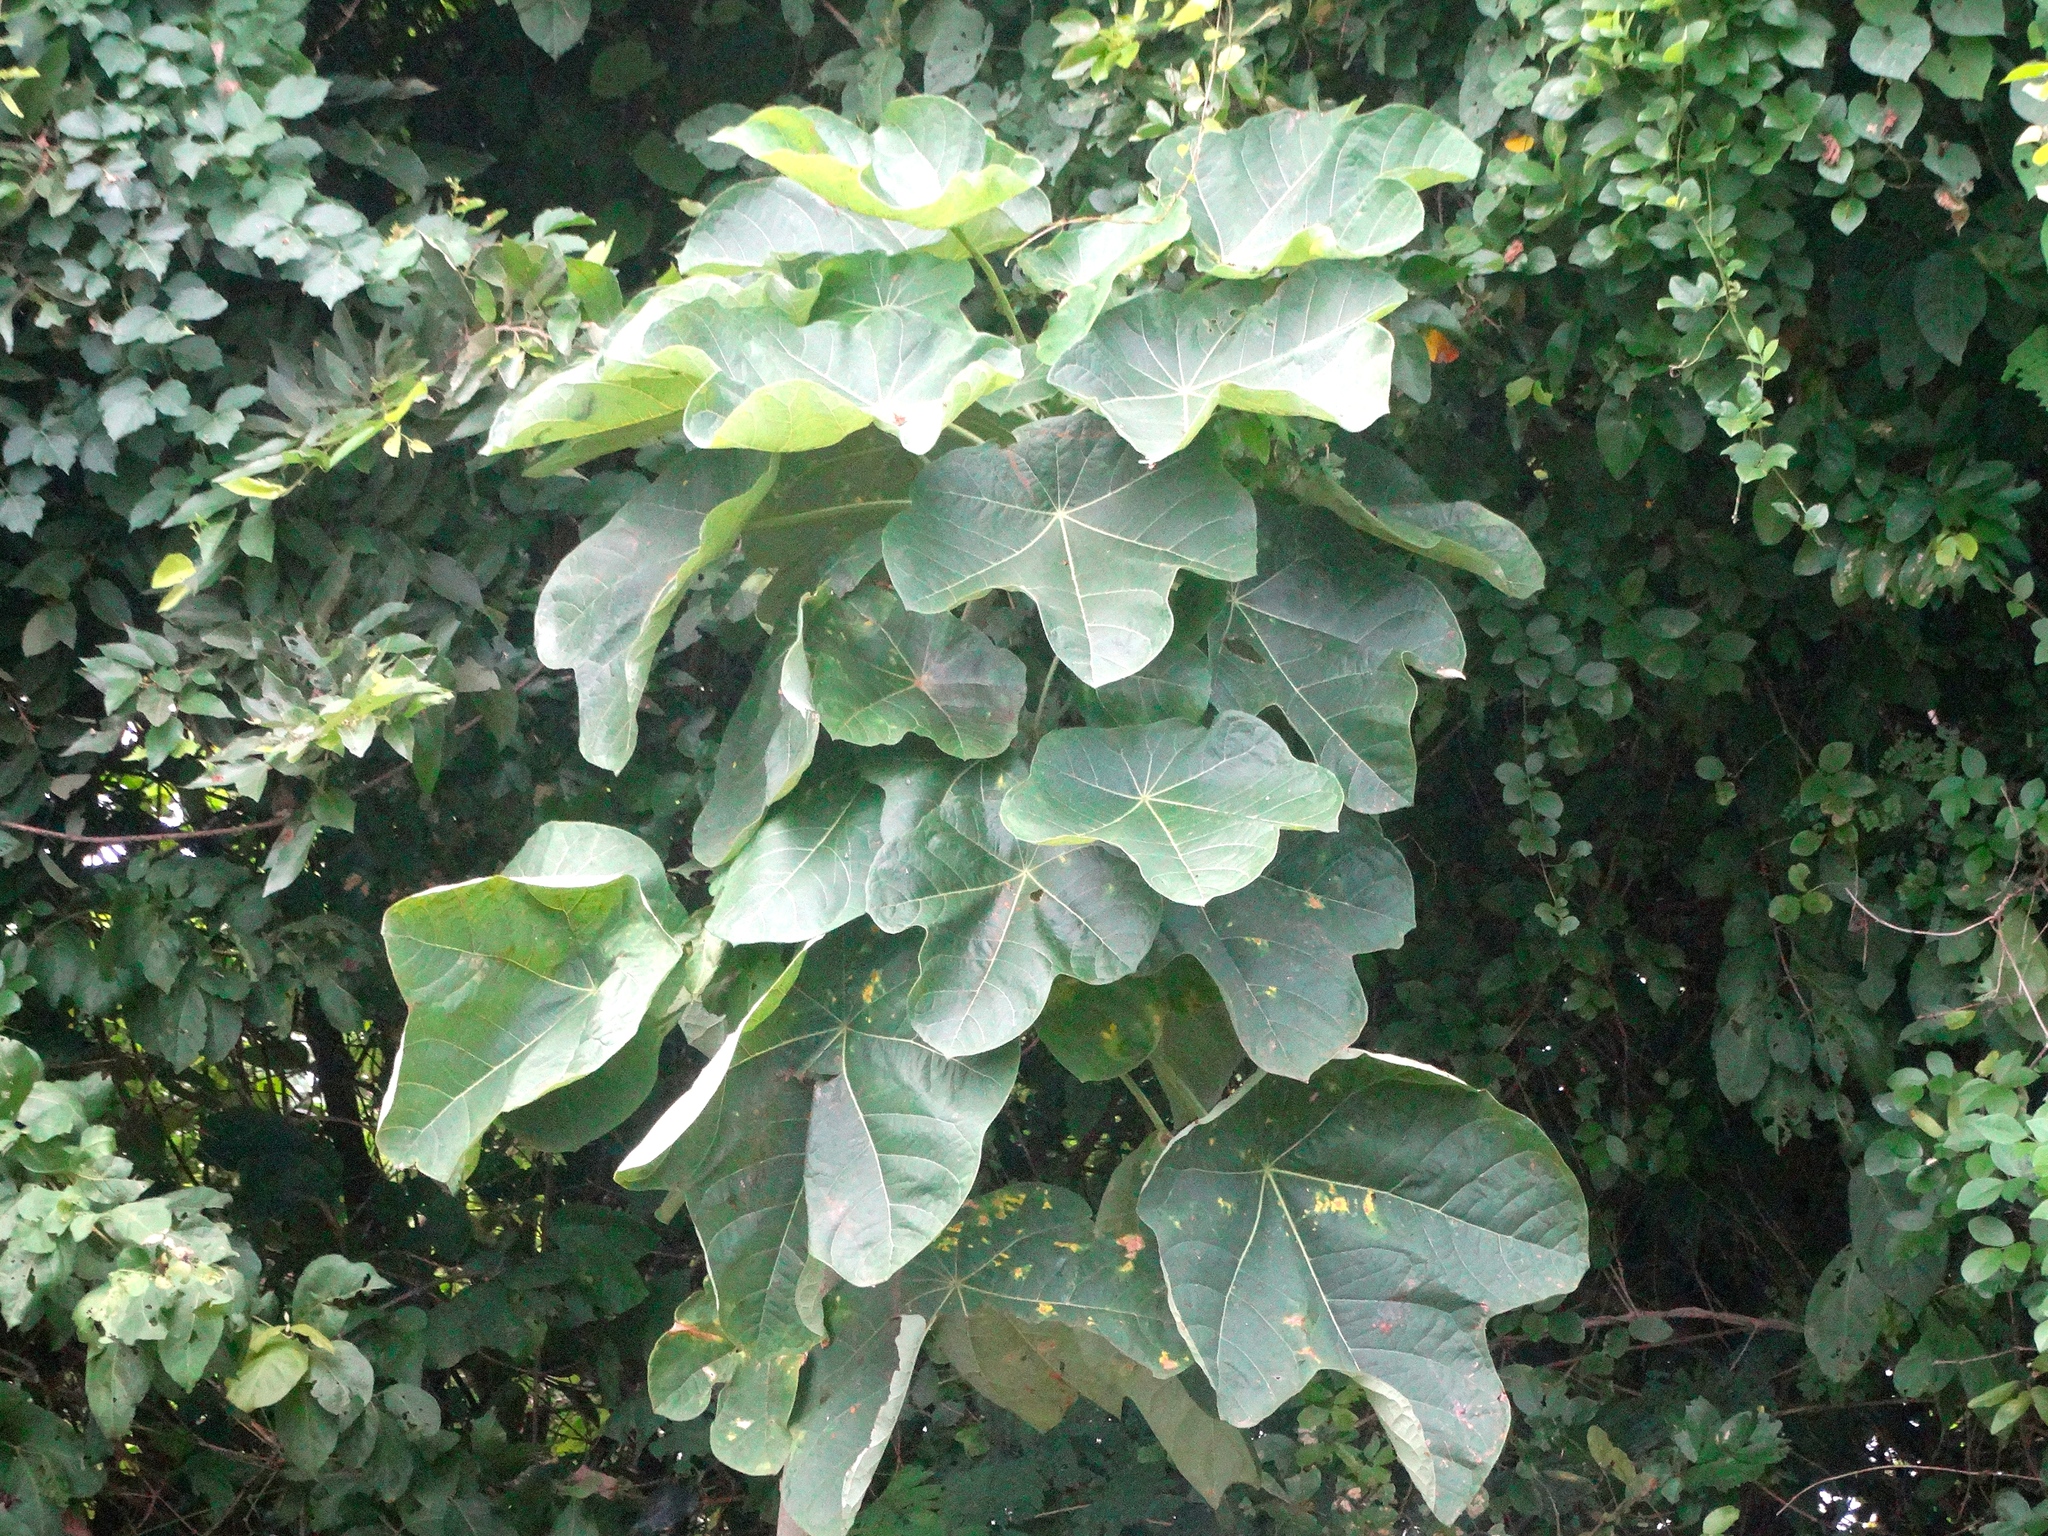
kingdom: Plantae
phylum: Tracheophyta
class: Magnoliopsida
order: Malpighiales
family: Euphorbiaceae
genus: Jatropha
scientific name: Jatropha peltata
